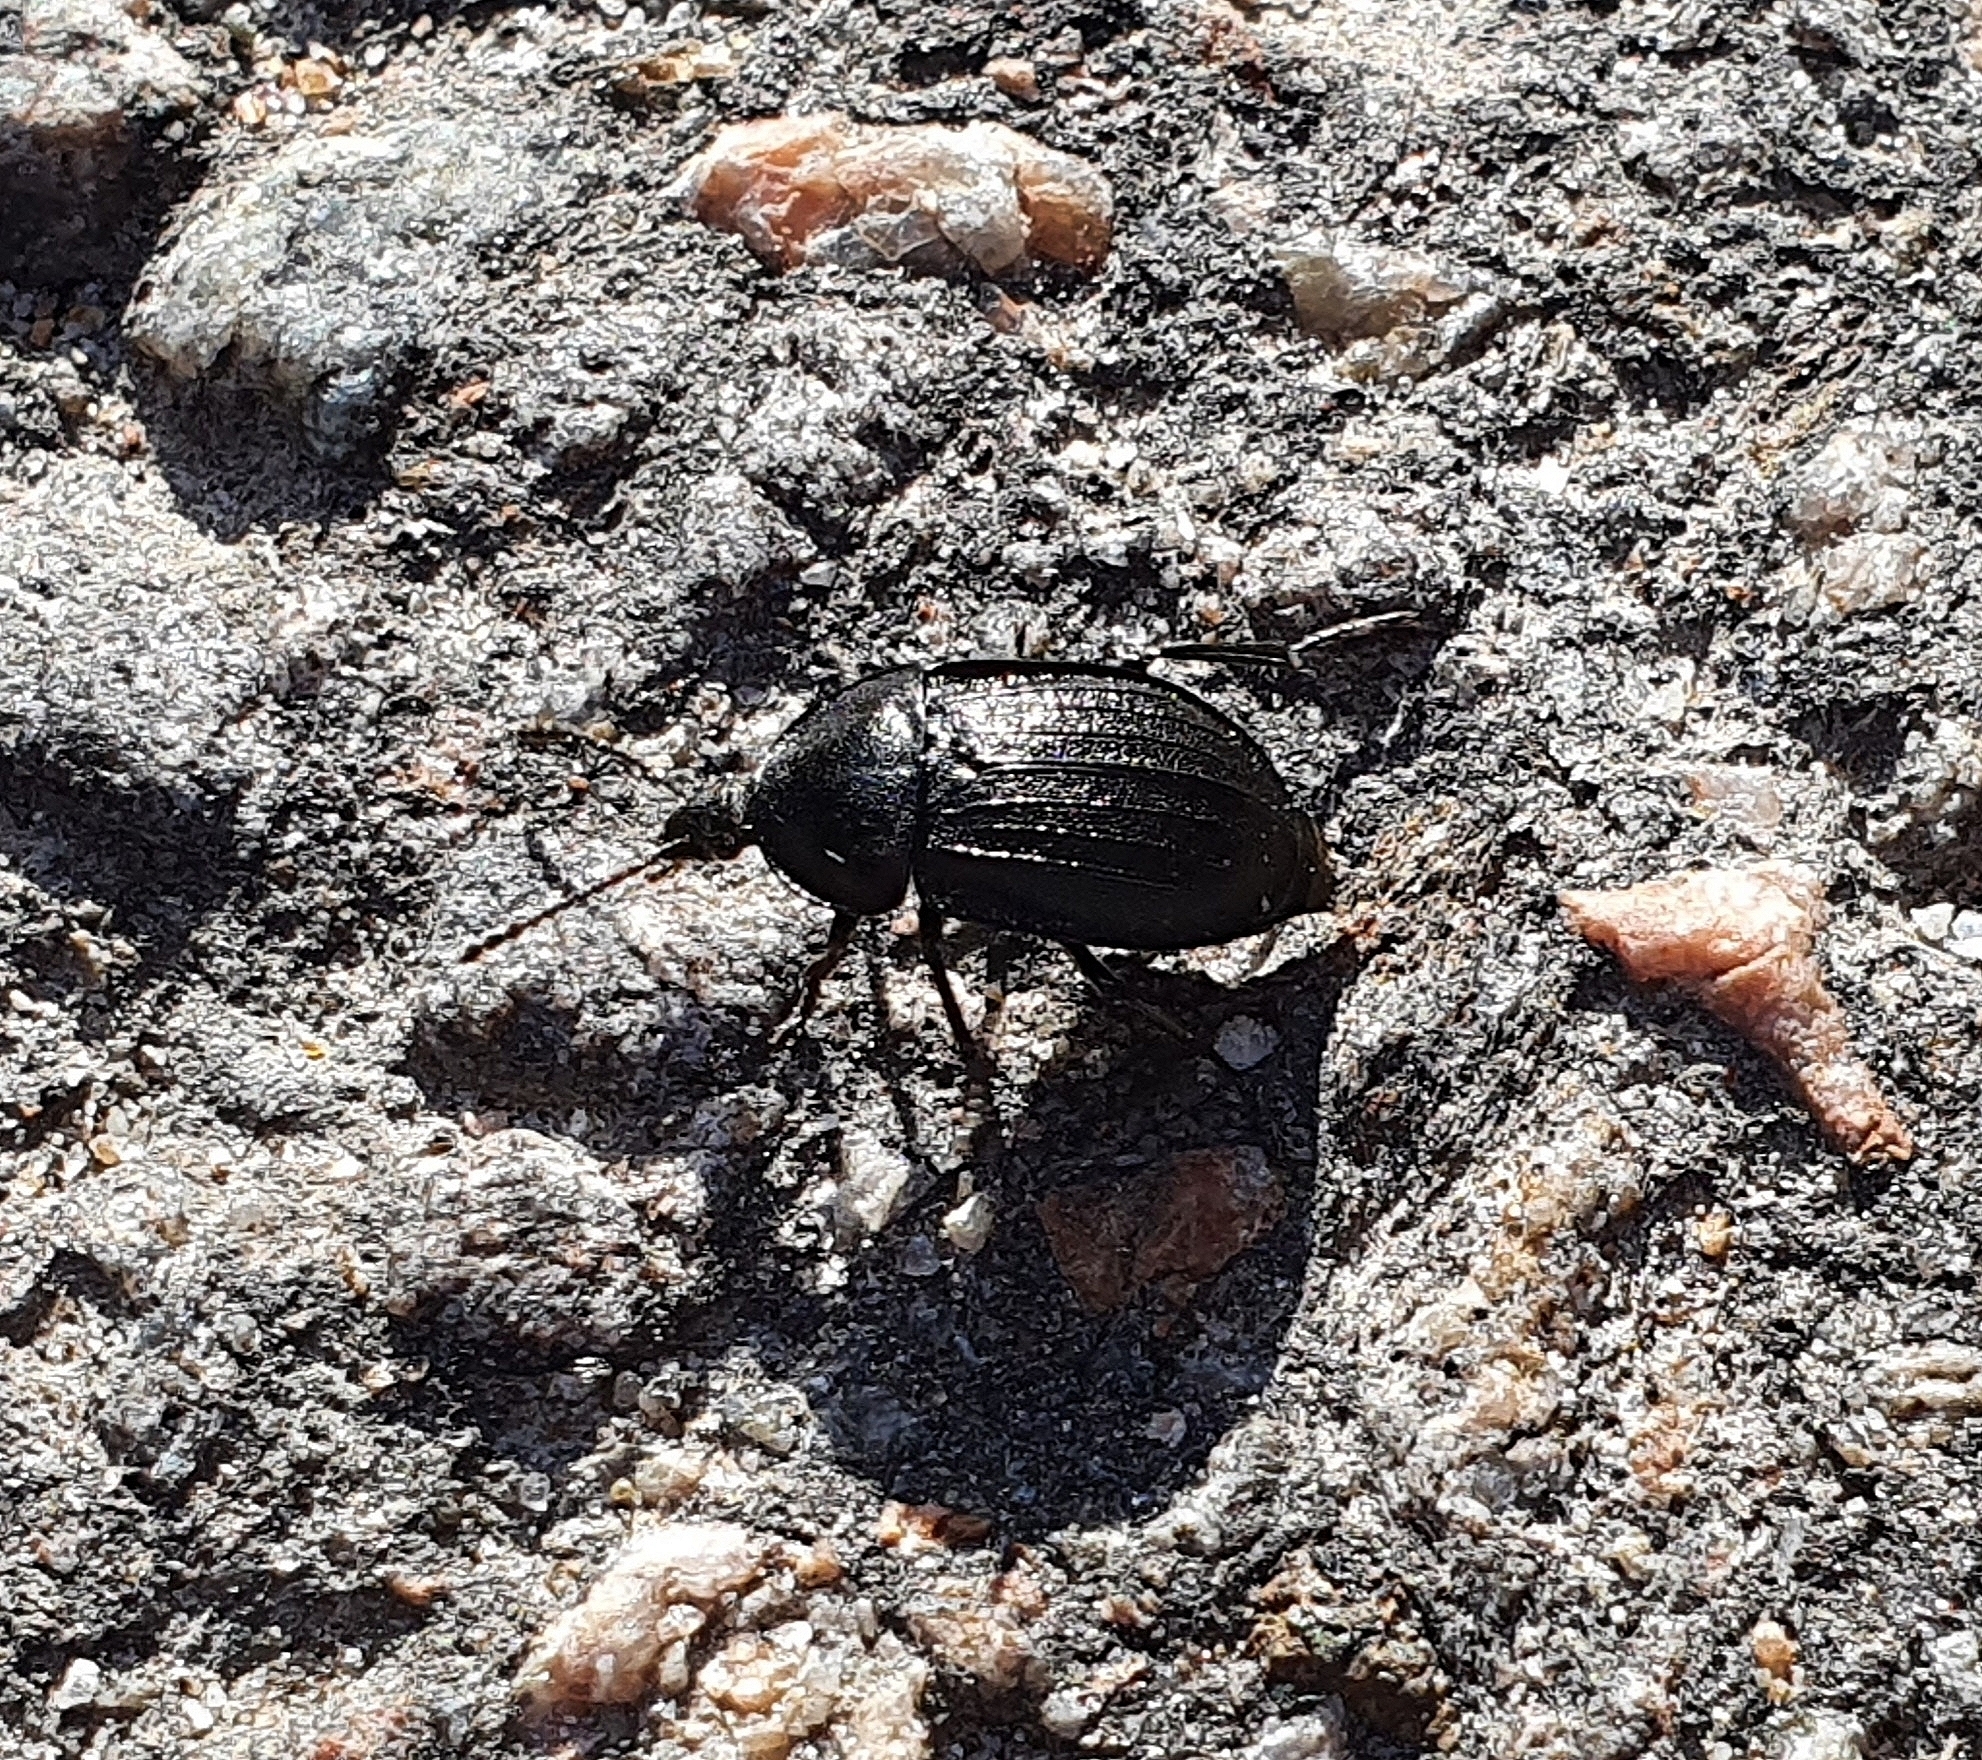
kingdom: Animalia
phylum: Arthropoda
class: Insecta
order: Coleoptera
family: Staphylinidae
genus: Silpha
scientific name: Silpha atrata
